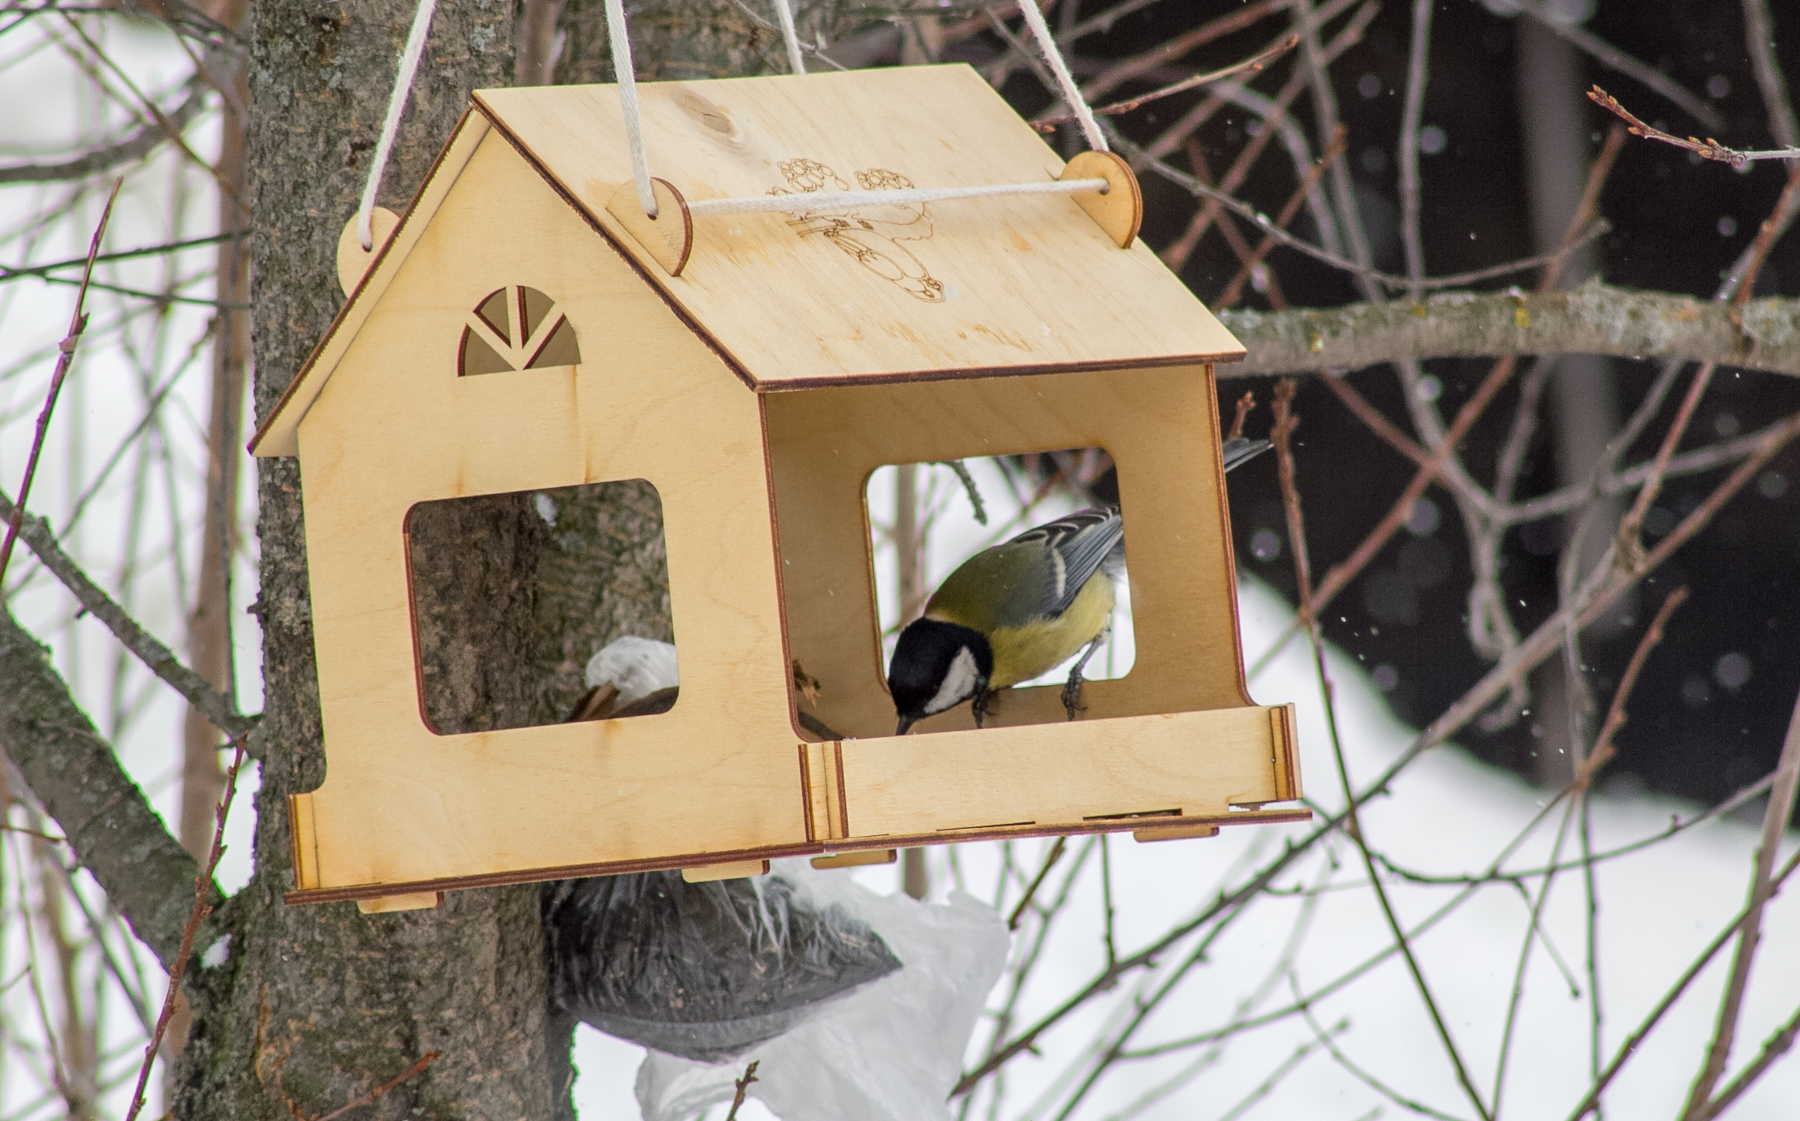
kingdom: Animalia
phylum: Chordata
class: Aves
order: Passeriformes
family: Paridae
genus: Parus
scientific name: Parus major
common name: Great tit
